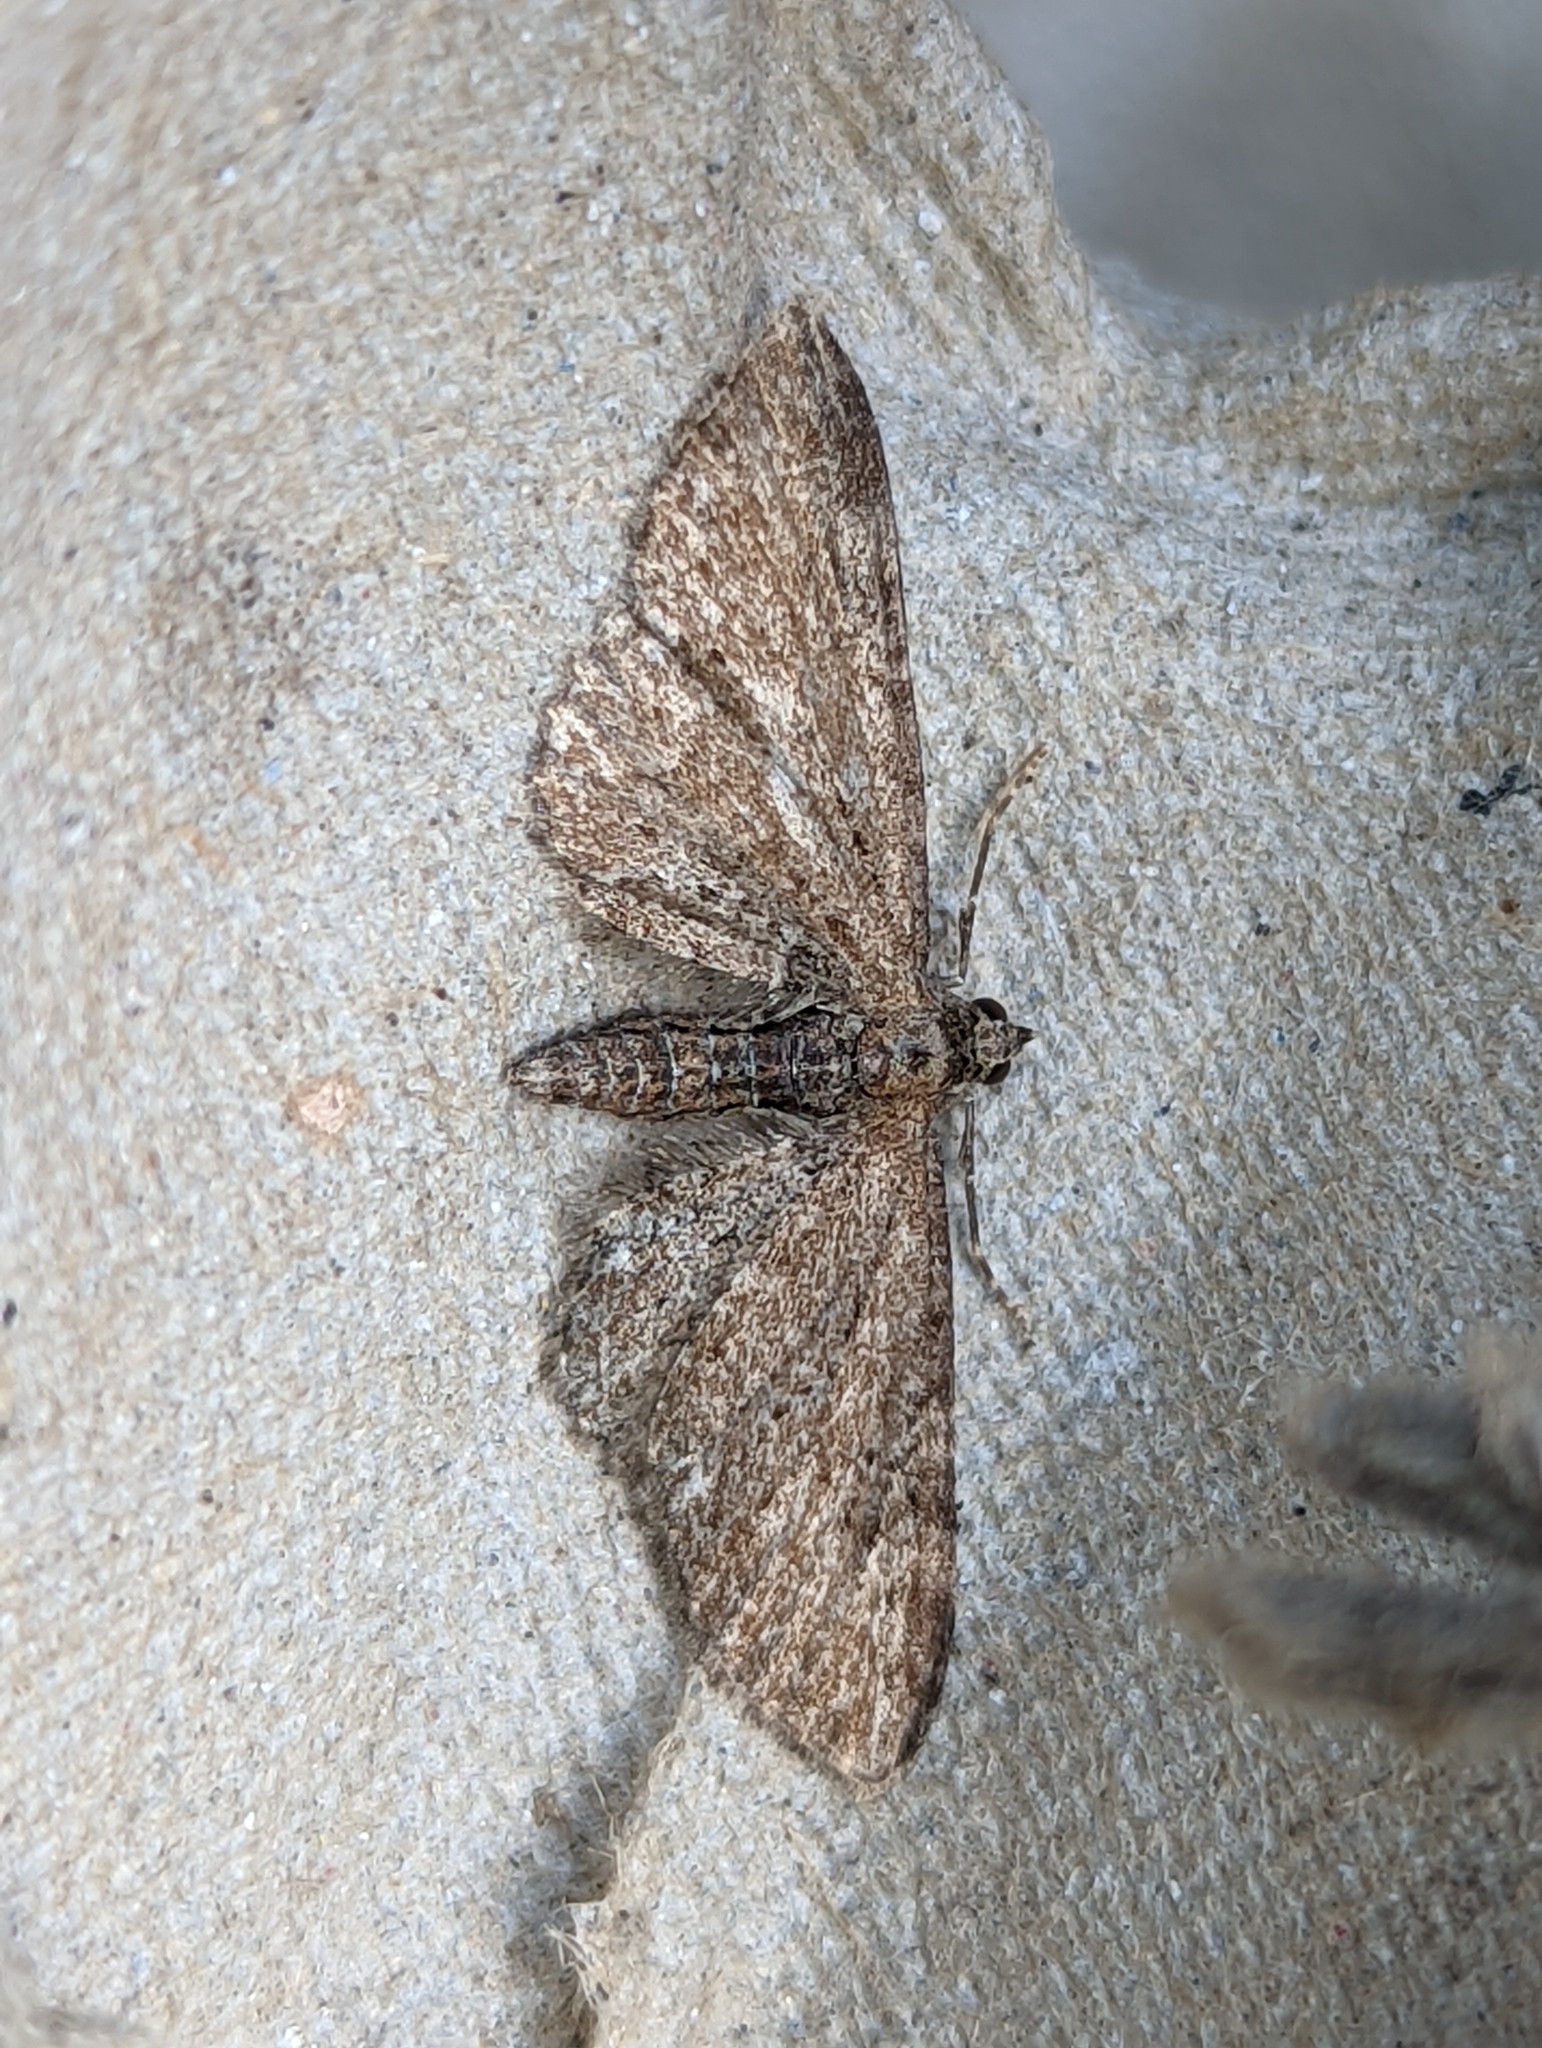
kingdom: Animalia
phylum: Arthropoda
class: Insecta
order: Lepidoptera
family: Geometridae
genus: Eupithecia
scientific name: Eupithecia vulgata
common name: Common pug
